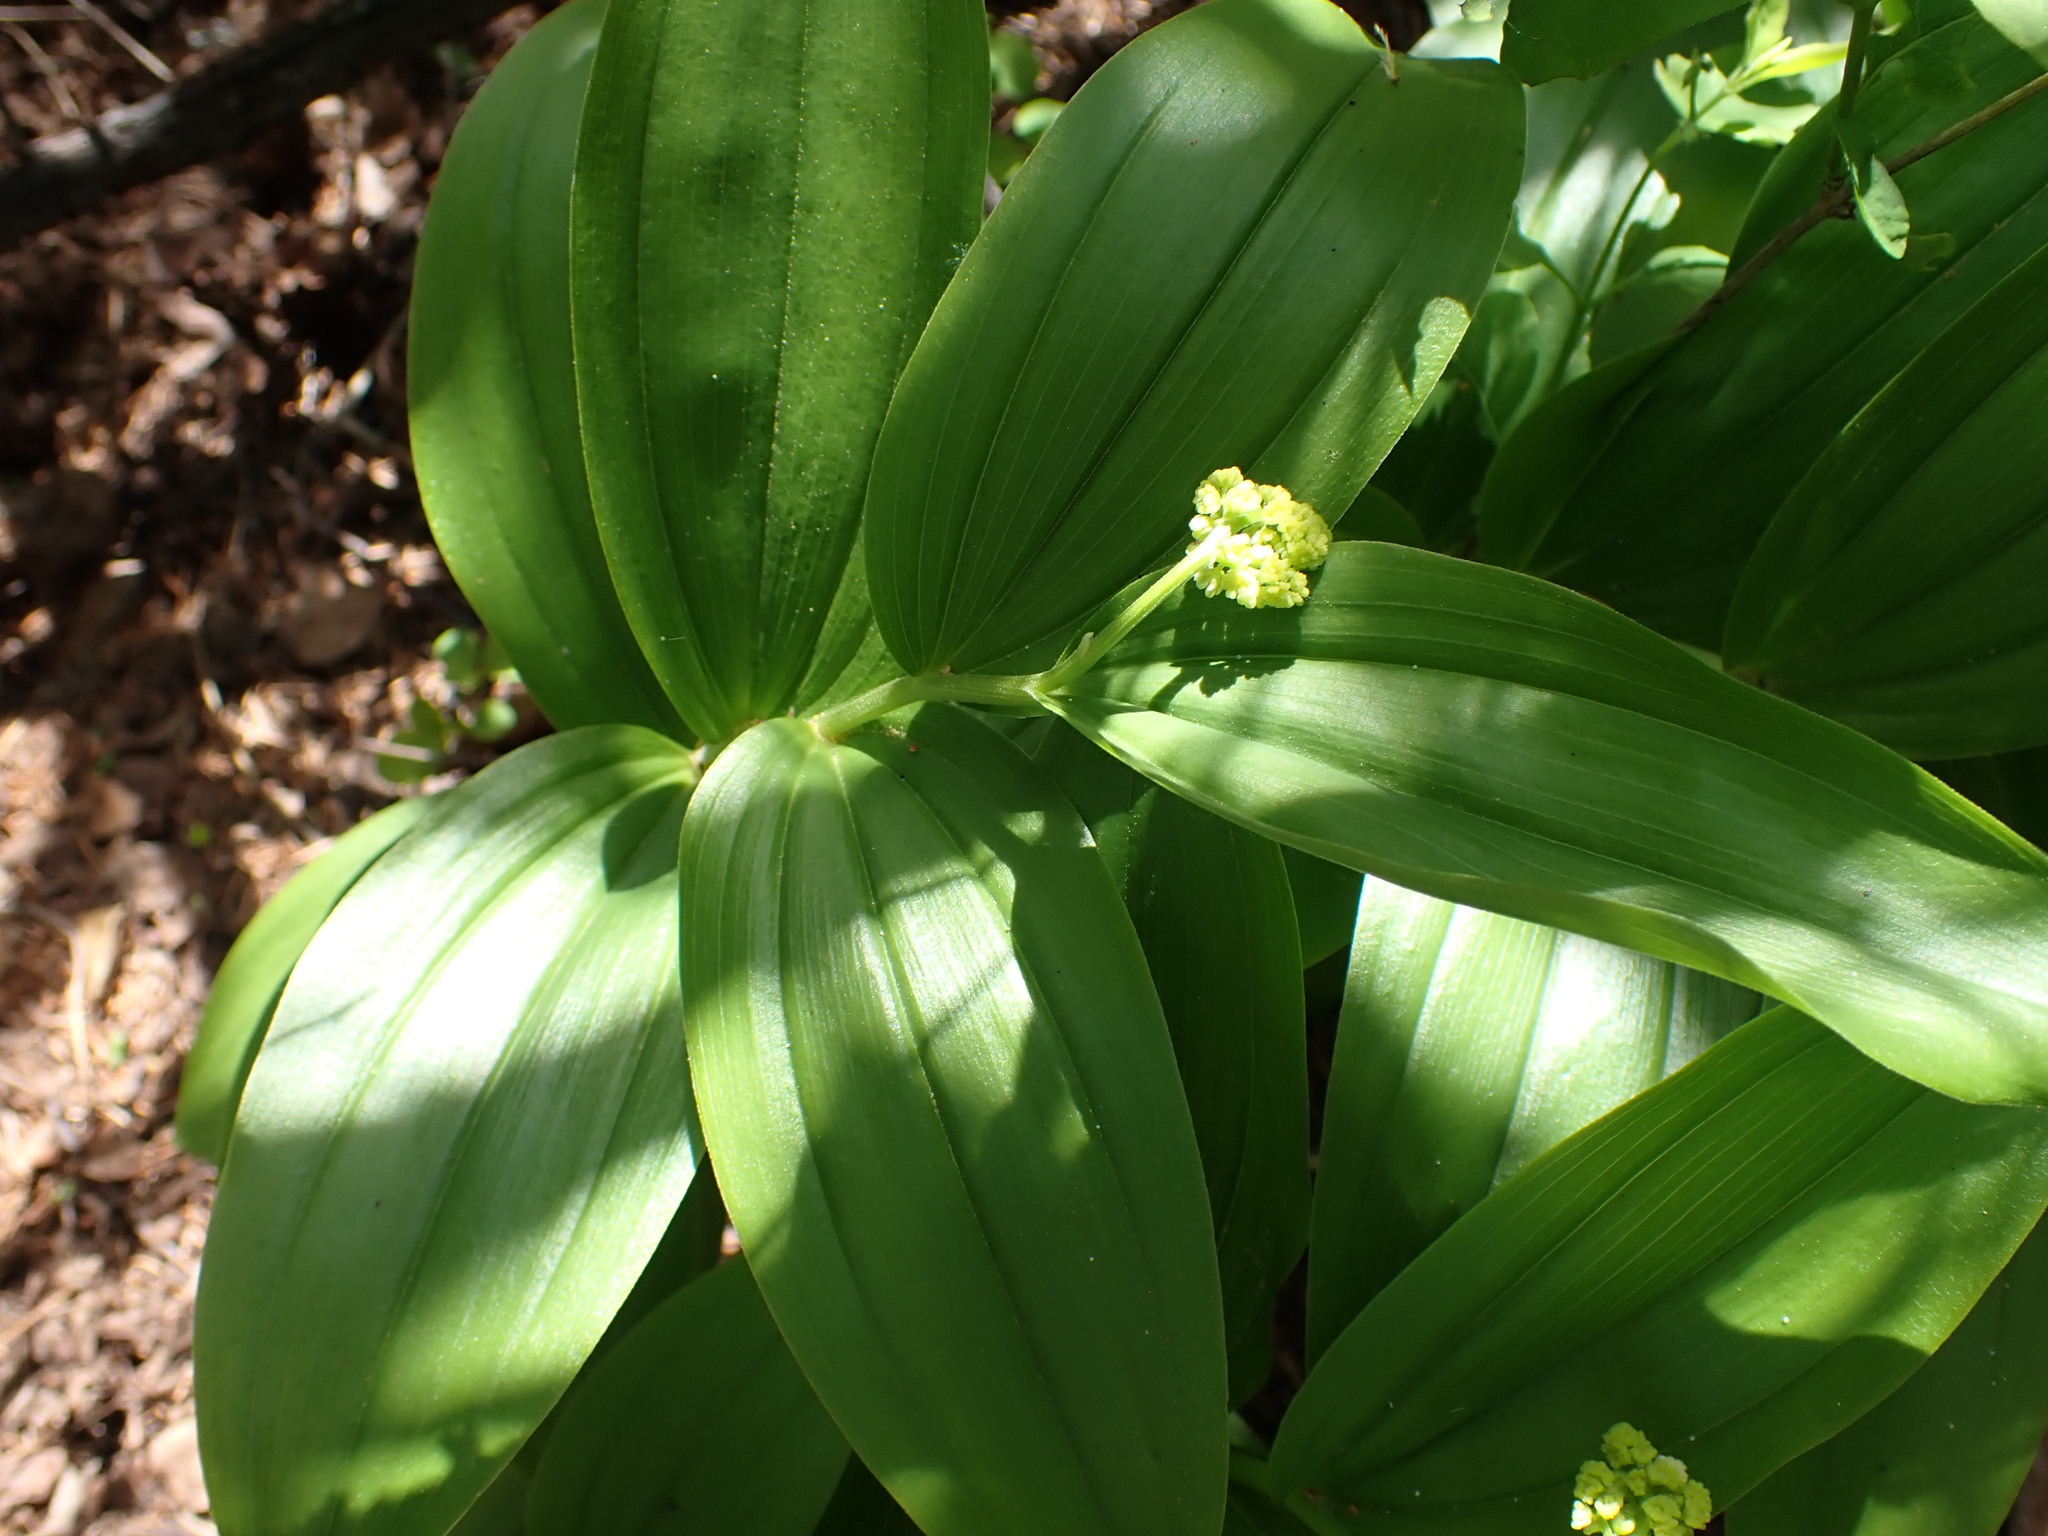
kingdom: Plantae
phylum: Tracheophyta
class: Liliopsida
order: Asparagales
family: Asparagaceae
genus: Maianthemum
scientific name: Maianthemum racemosum
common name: False spikenard
